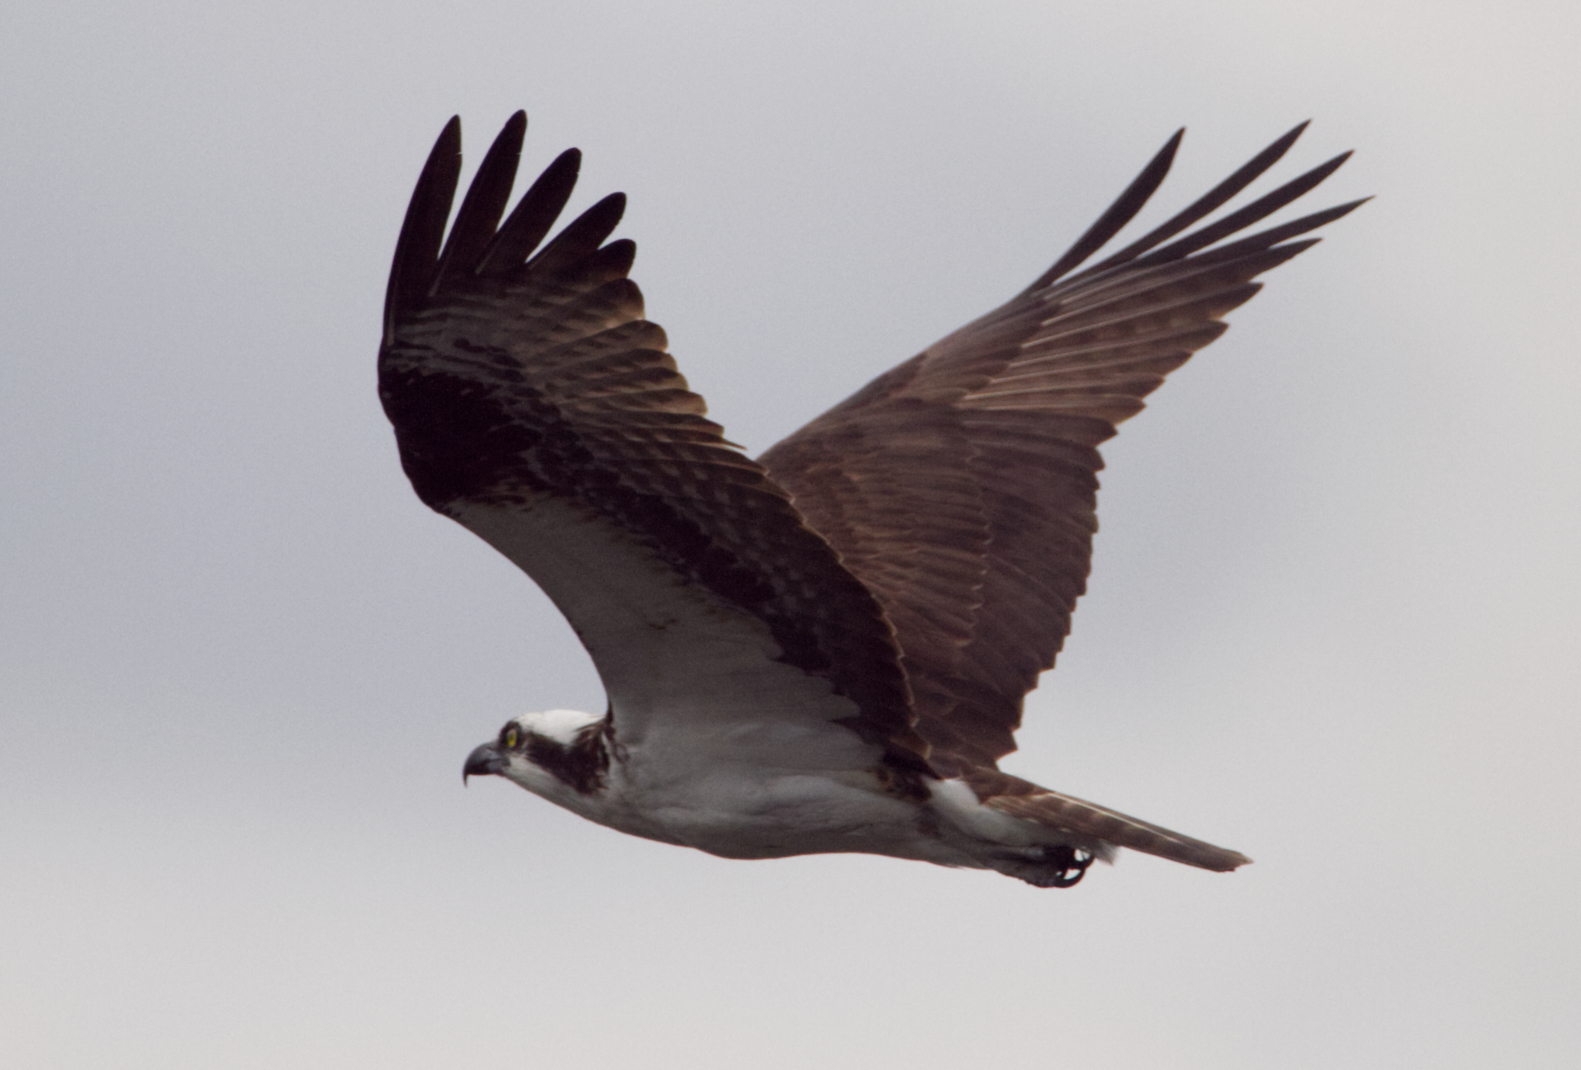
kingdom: Animalia
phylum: Chordata
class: Aves
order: Accipitriformes
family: Pandionidae
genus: Pandion
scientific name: Pandion haliaetus
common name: Osprey
